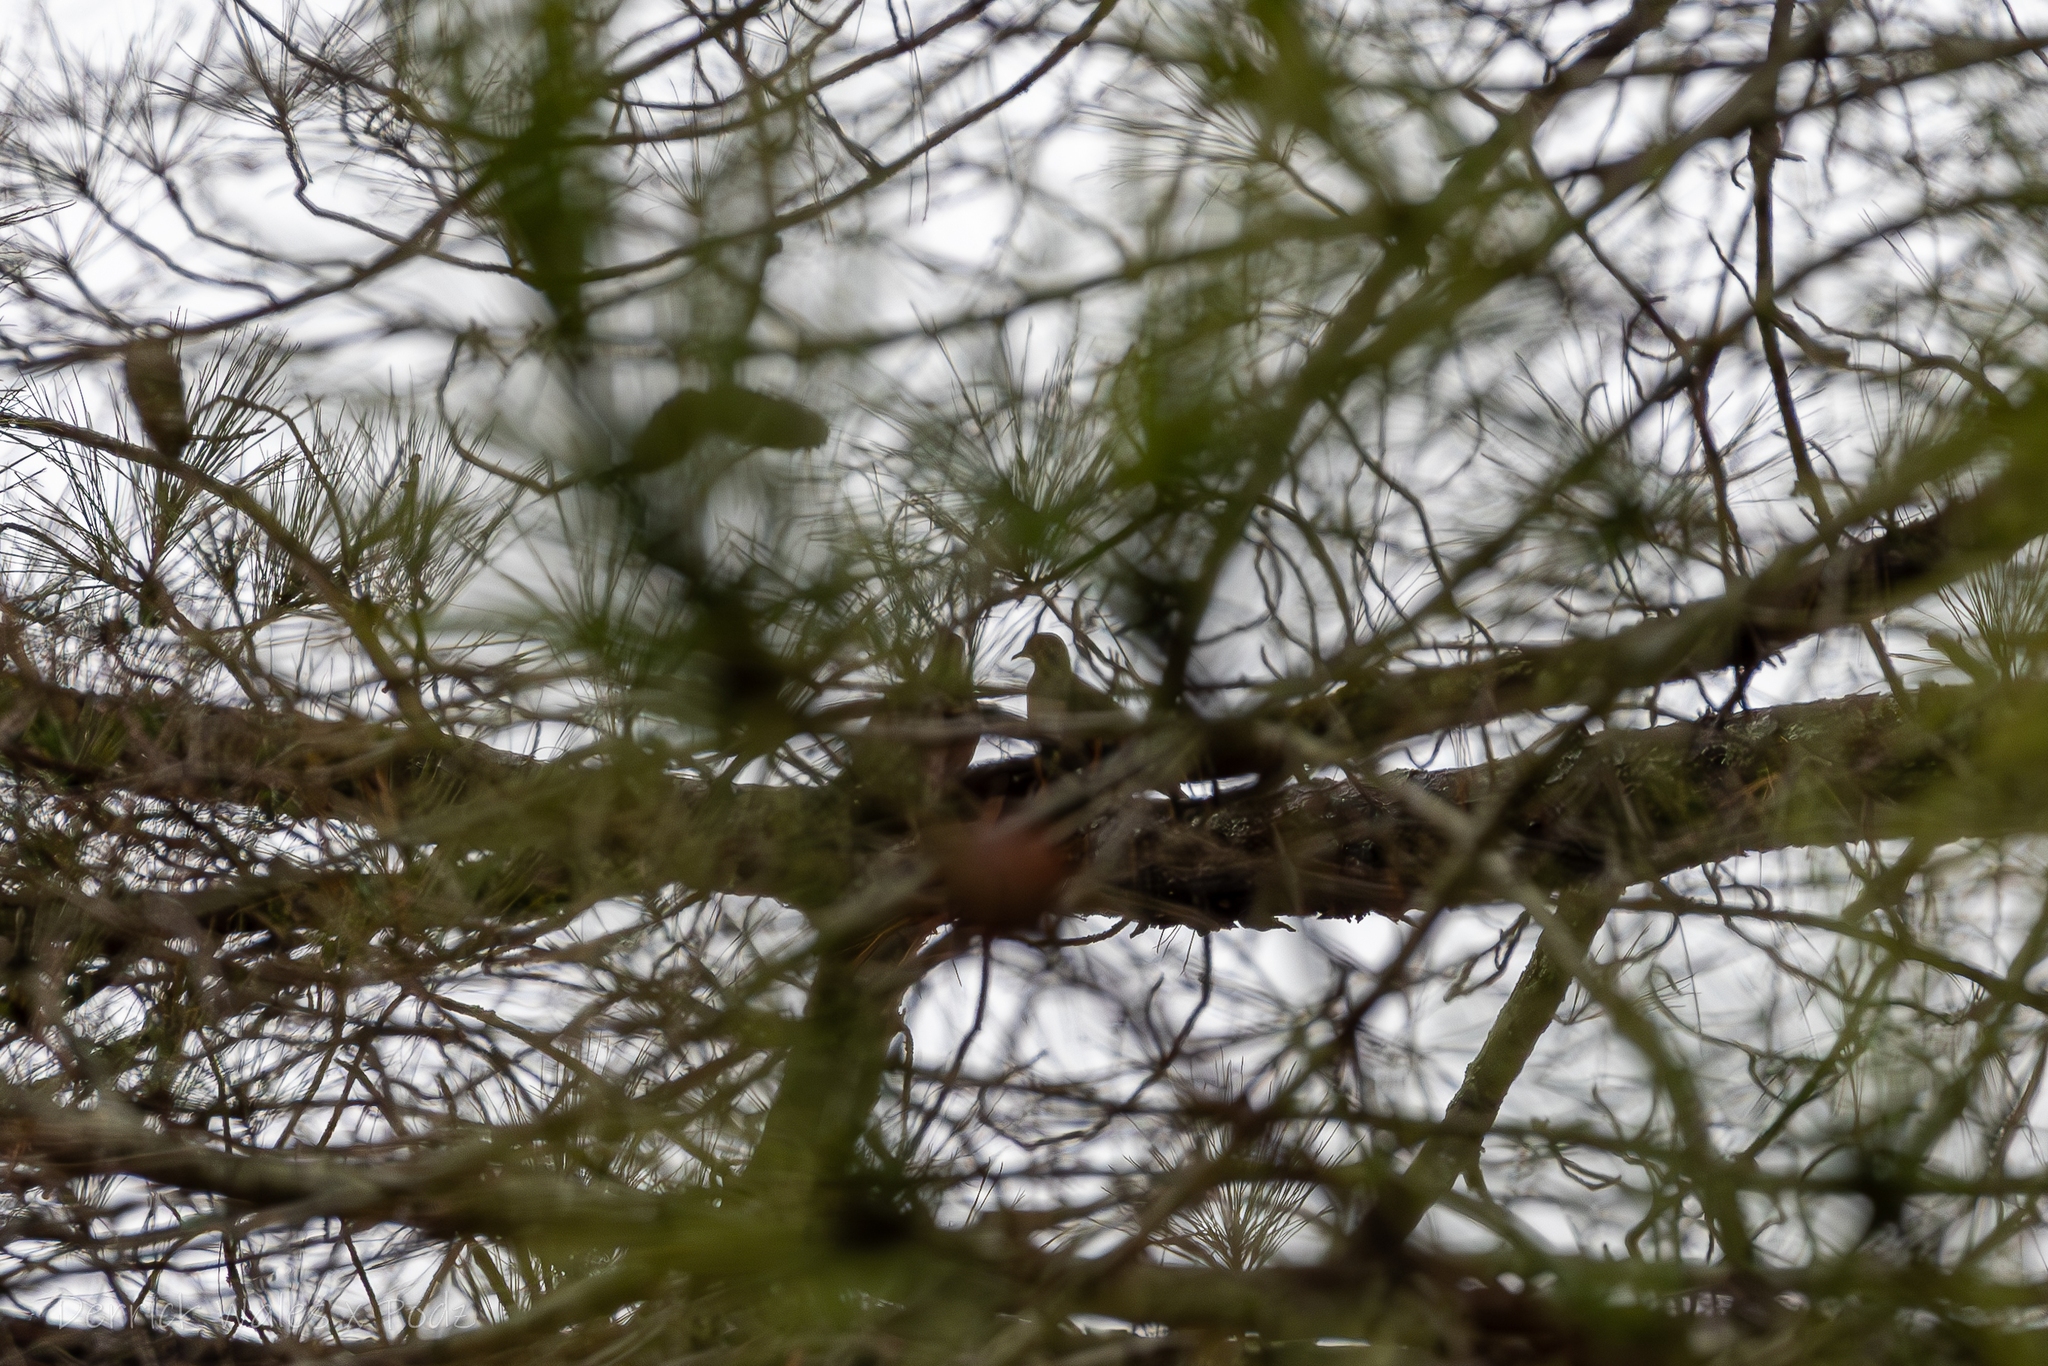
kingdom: Animalia
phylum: Chordata
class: Aves
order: Columbiformes
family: Columbidae
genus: Zenaida
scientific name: Zenaida macroura
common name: Mourning dove
